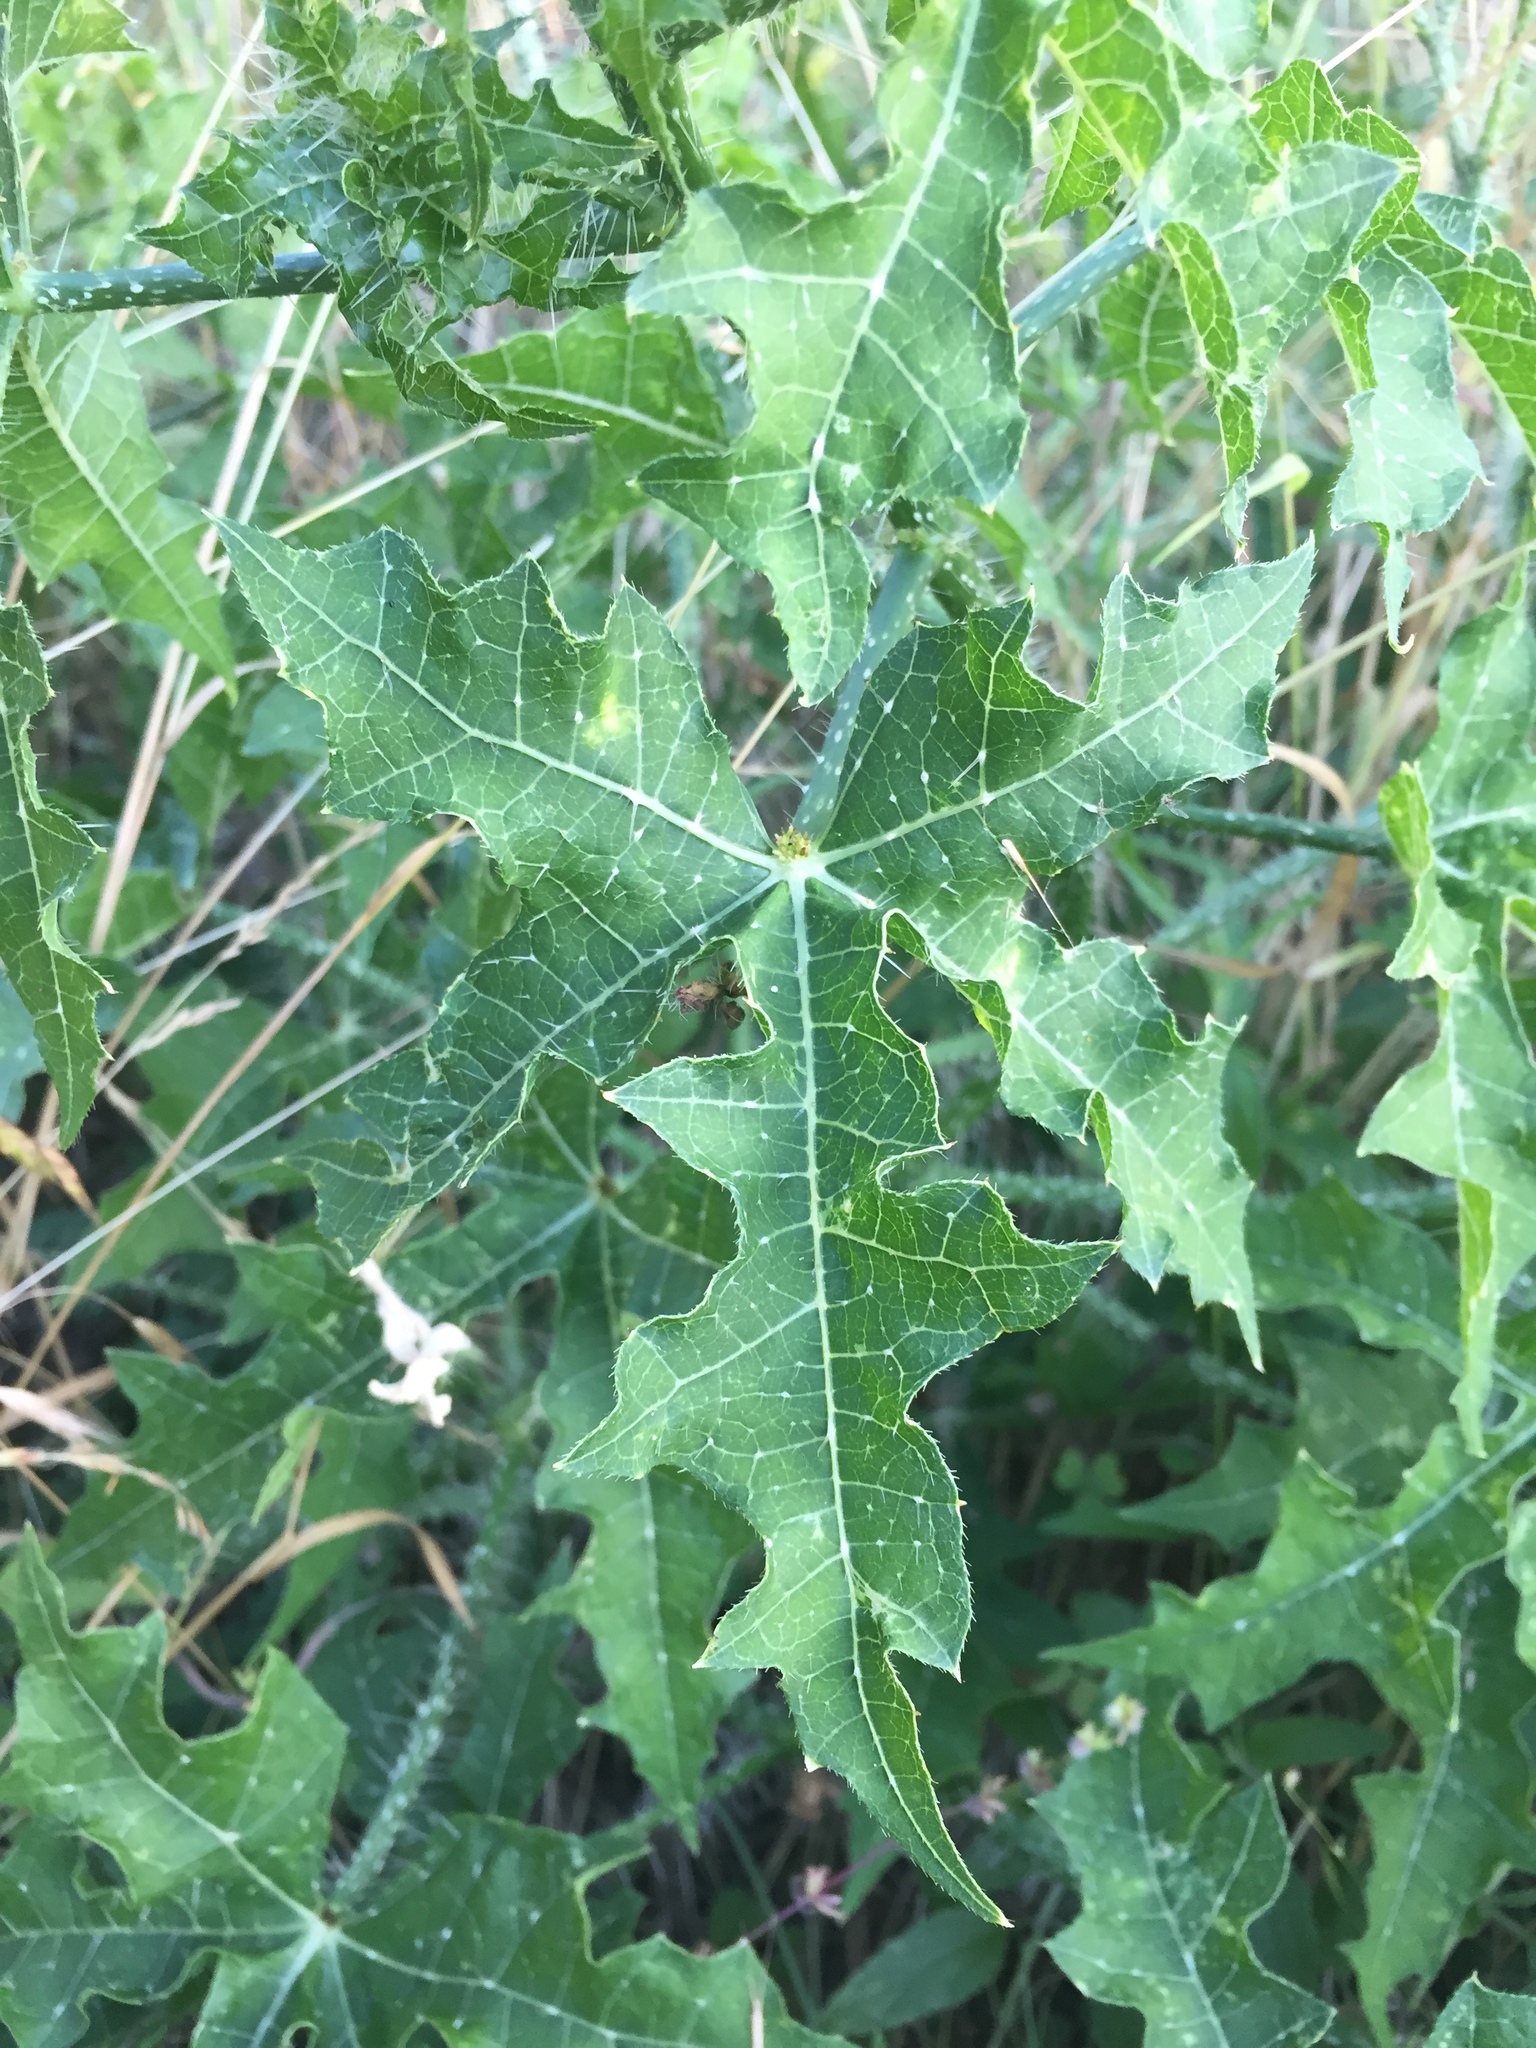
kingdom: Plantae
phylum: Tracheophyta
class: Magnoliopsida
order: Malpighiales
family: Euphorbiaceae
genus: Cnidoscolus
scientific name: Cnidoscolus texanus
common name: Texas bull-nettle
